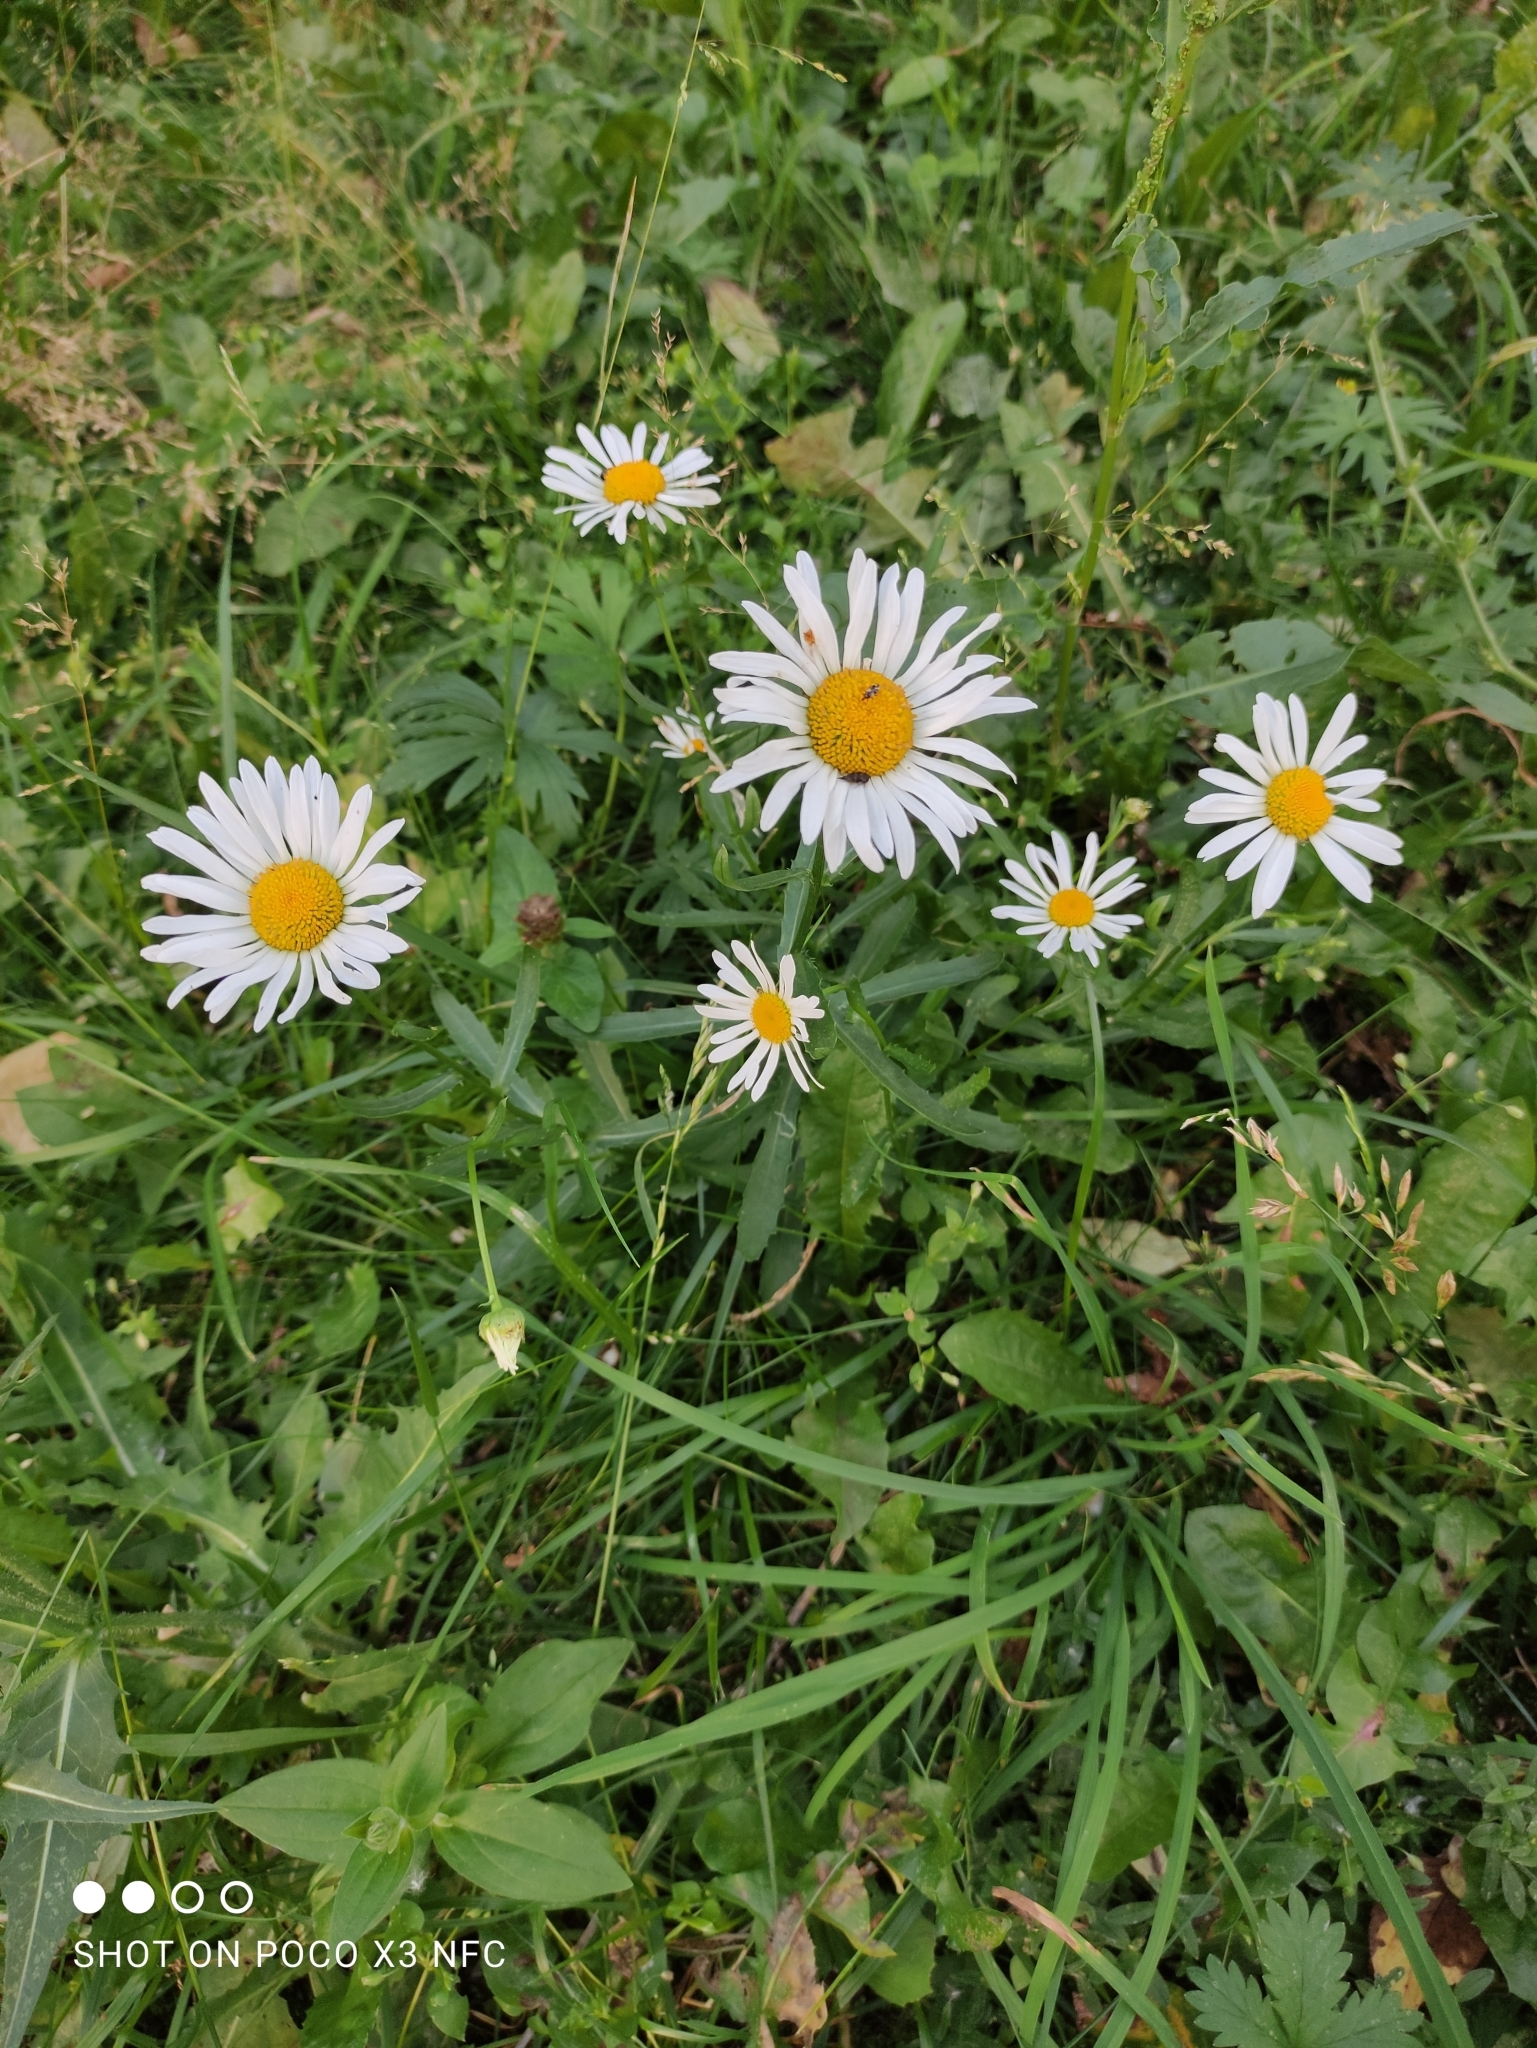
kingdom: Plantae
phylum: Tracheophyta
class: Magnoliopsida
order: Asterales
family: Asteraceae
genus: Leucanthemum
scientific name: Leucanthemum vulgare
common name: Oxeye daisy
